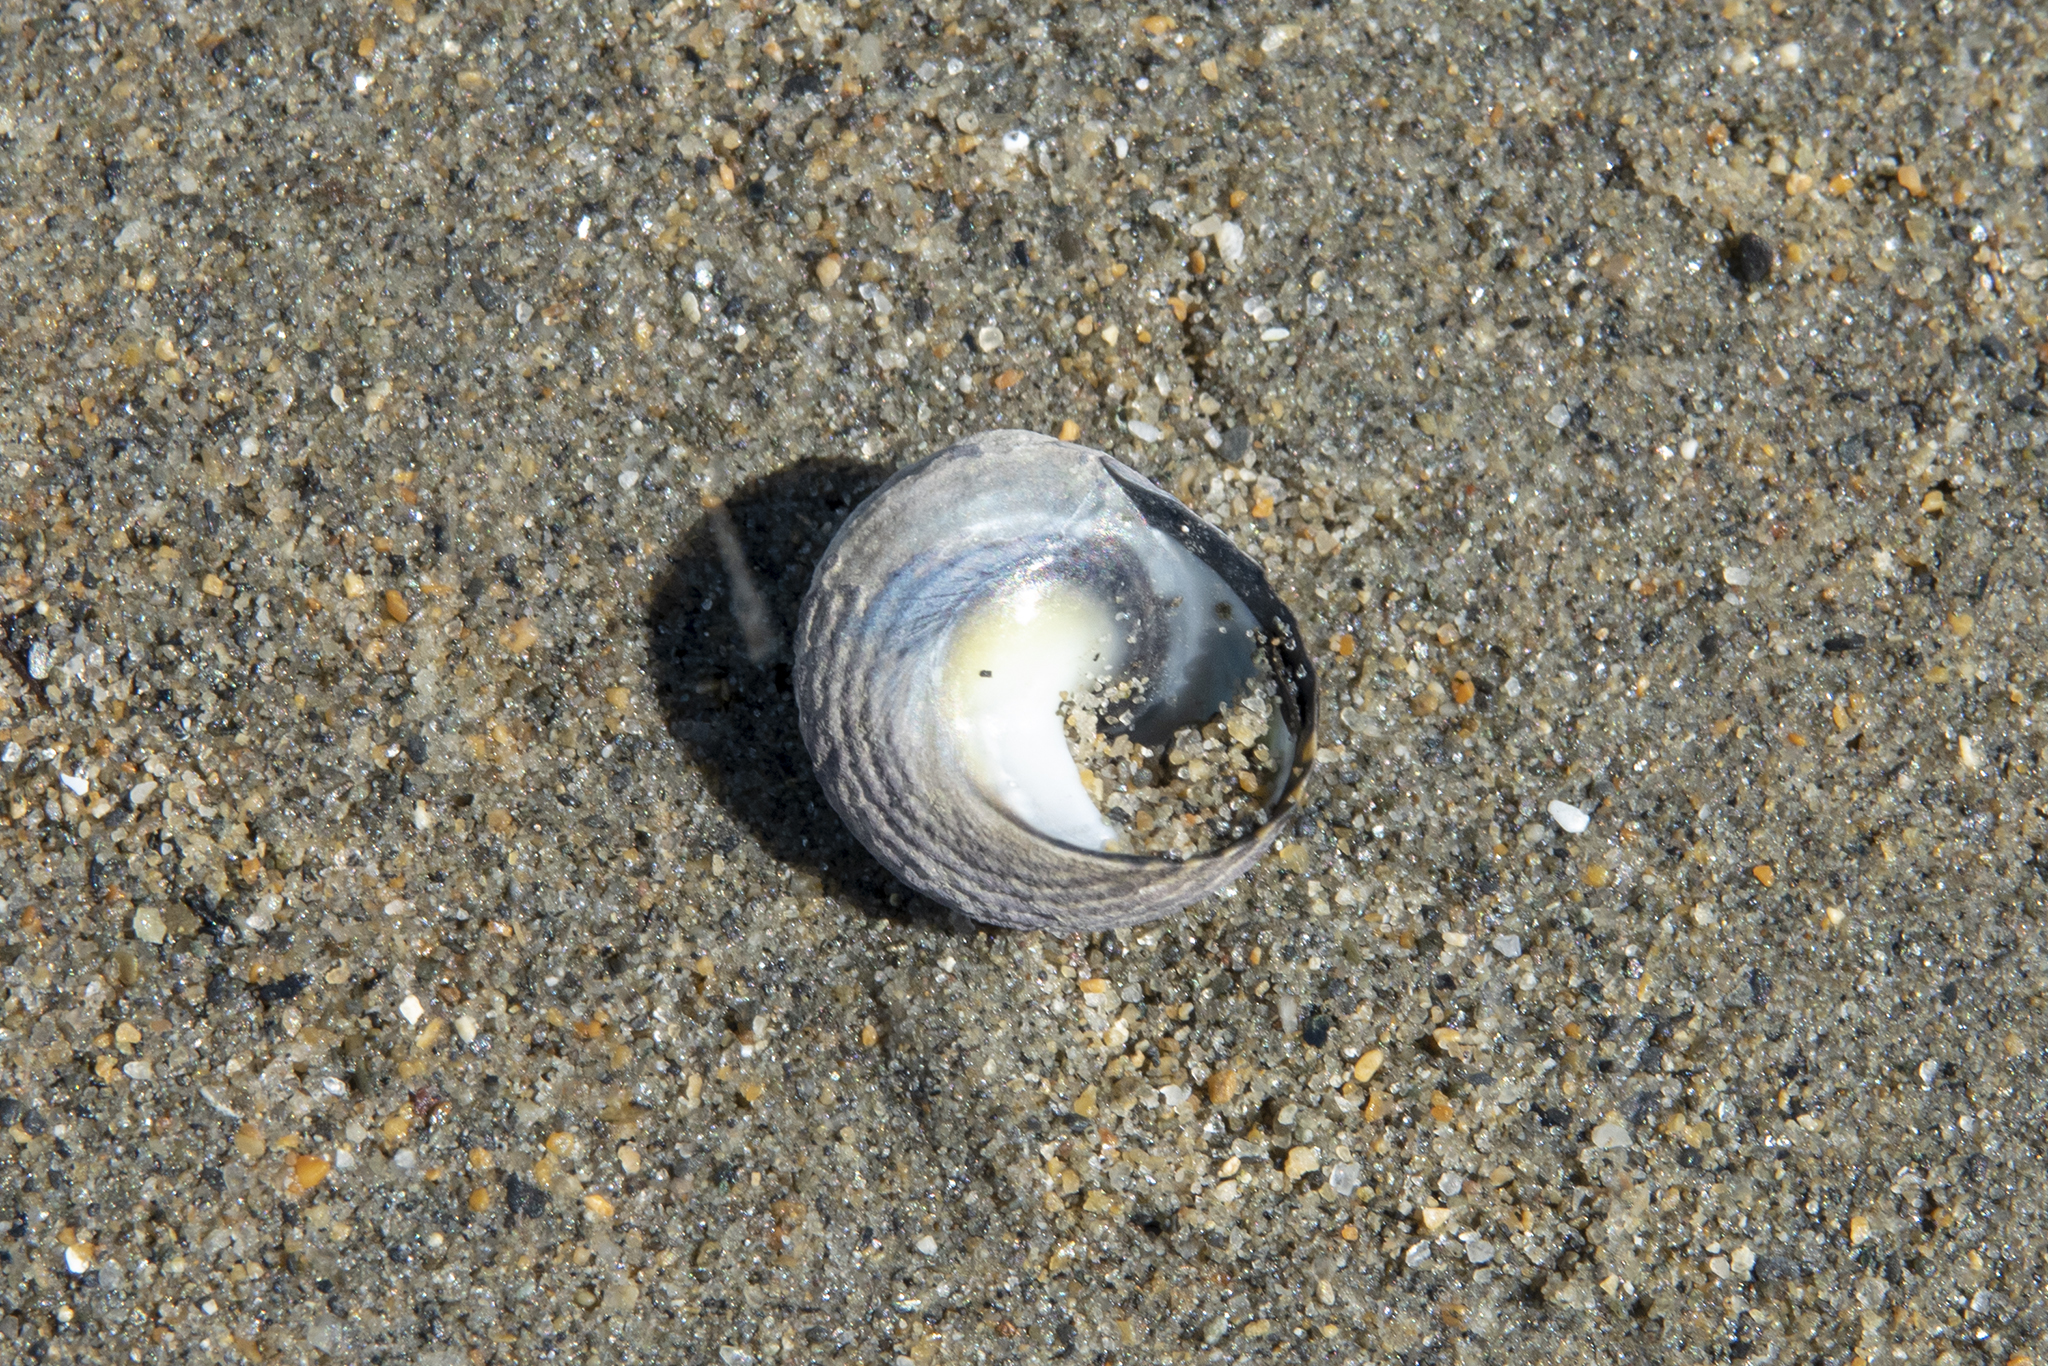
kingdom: Animalia
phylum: Mollusca
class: Gastropoda
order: Trochida
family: Trochidae
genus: Diloma
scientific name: Diloma subrostratum
